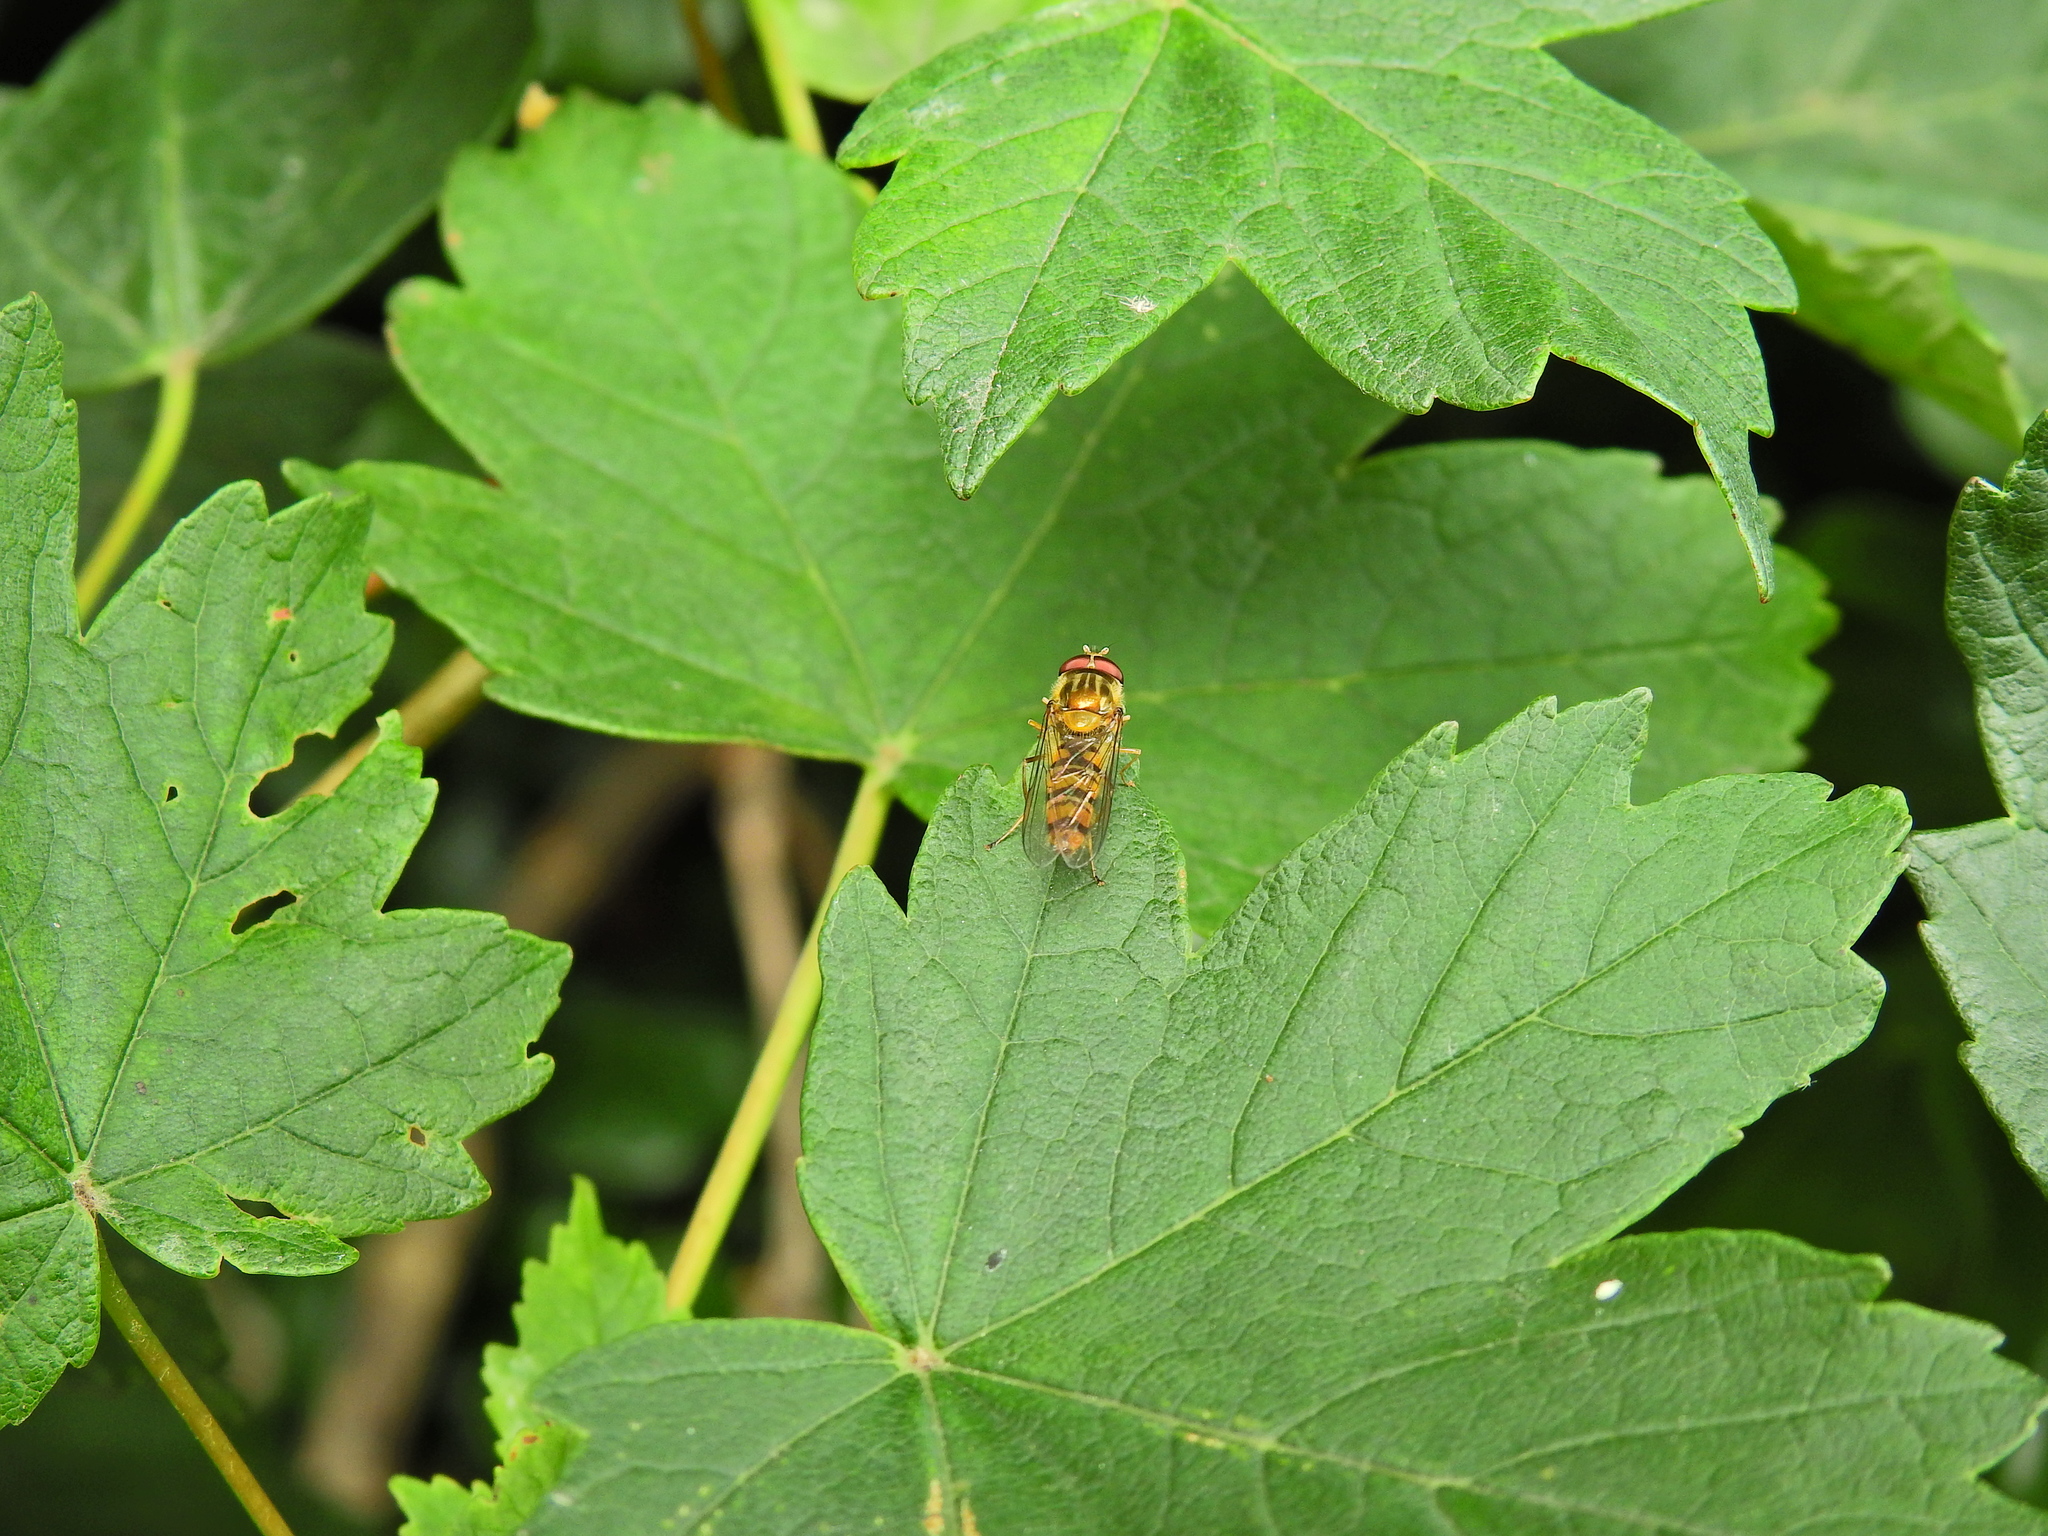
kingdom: Animalia
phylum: Arthropoda
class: Insecta
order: Diptera
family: Syrphidae
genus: Episyrphus
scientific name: Episyrphus balteatus
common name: Marmalade hoverfly
